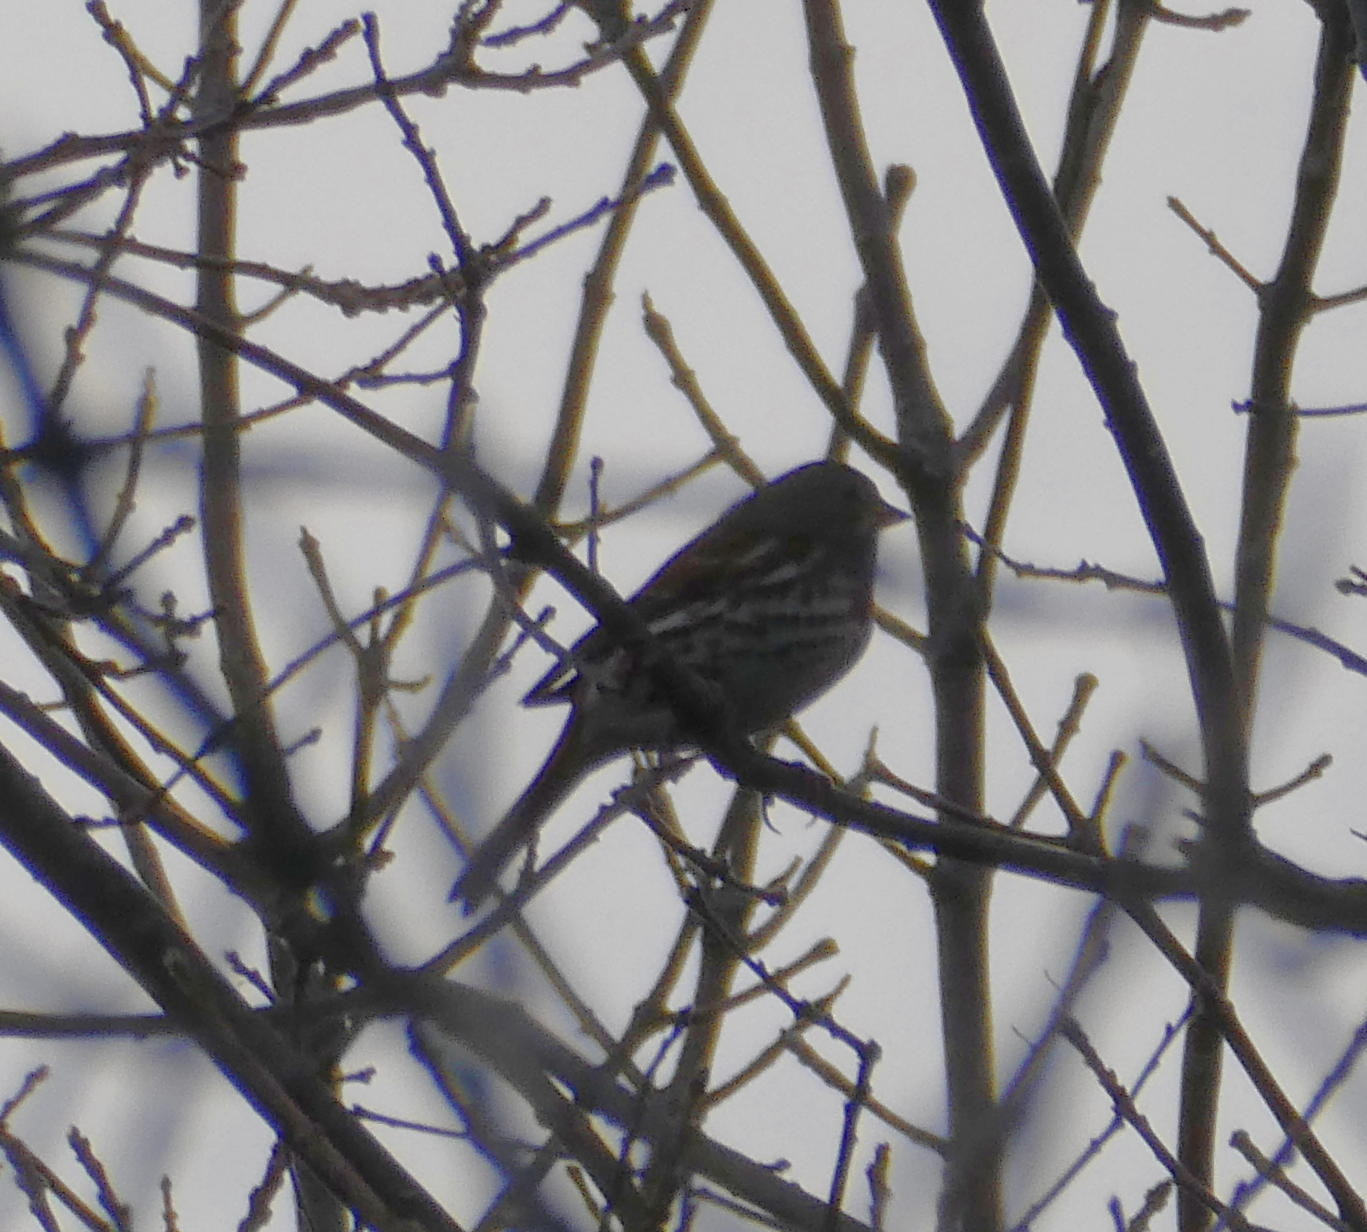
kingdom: Animalia
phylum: Chordata
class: Aves
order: Passeriformes
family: Passerellidae
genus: Passerella
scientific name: Passerella iliaca
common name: Fox sparrow
